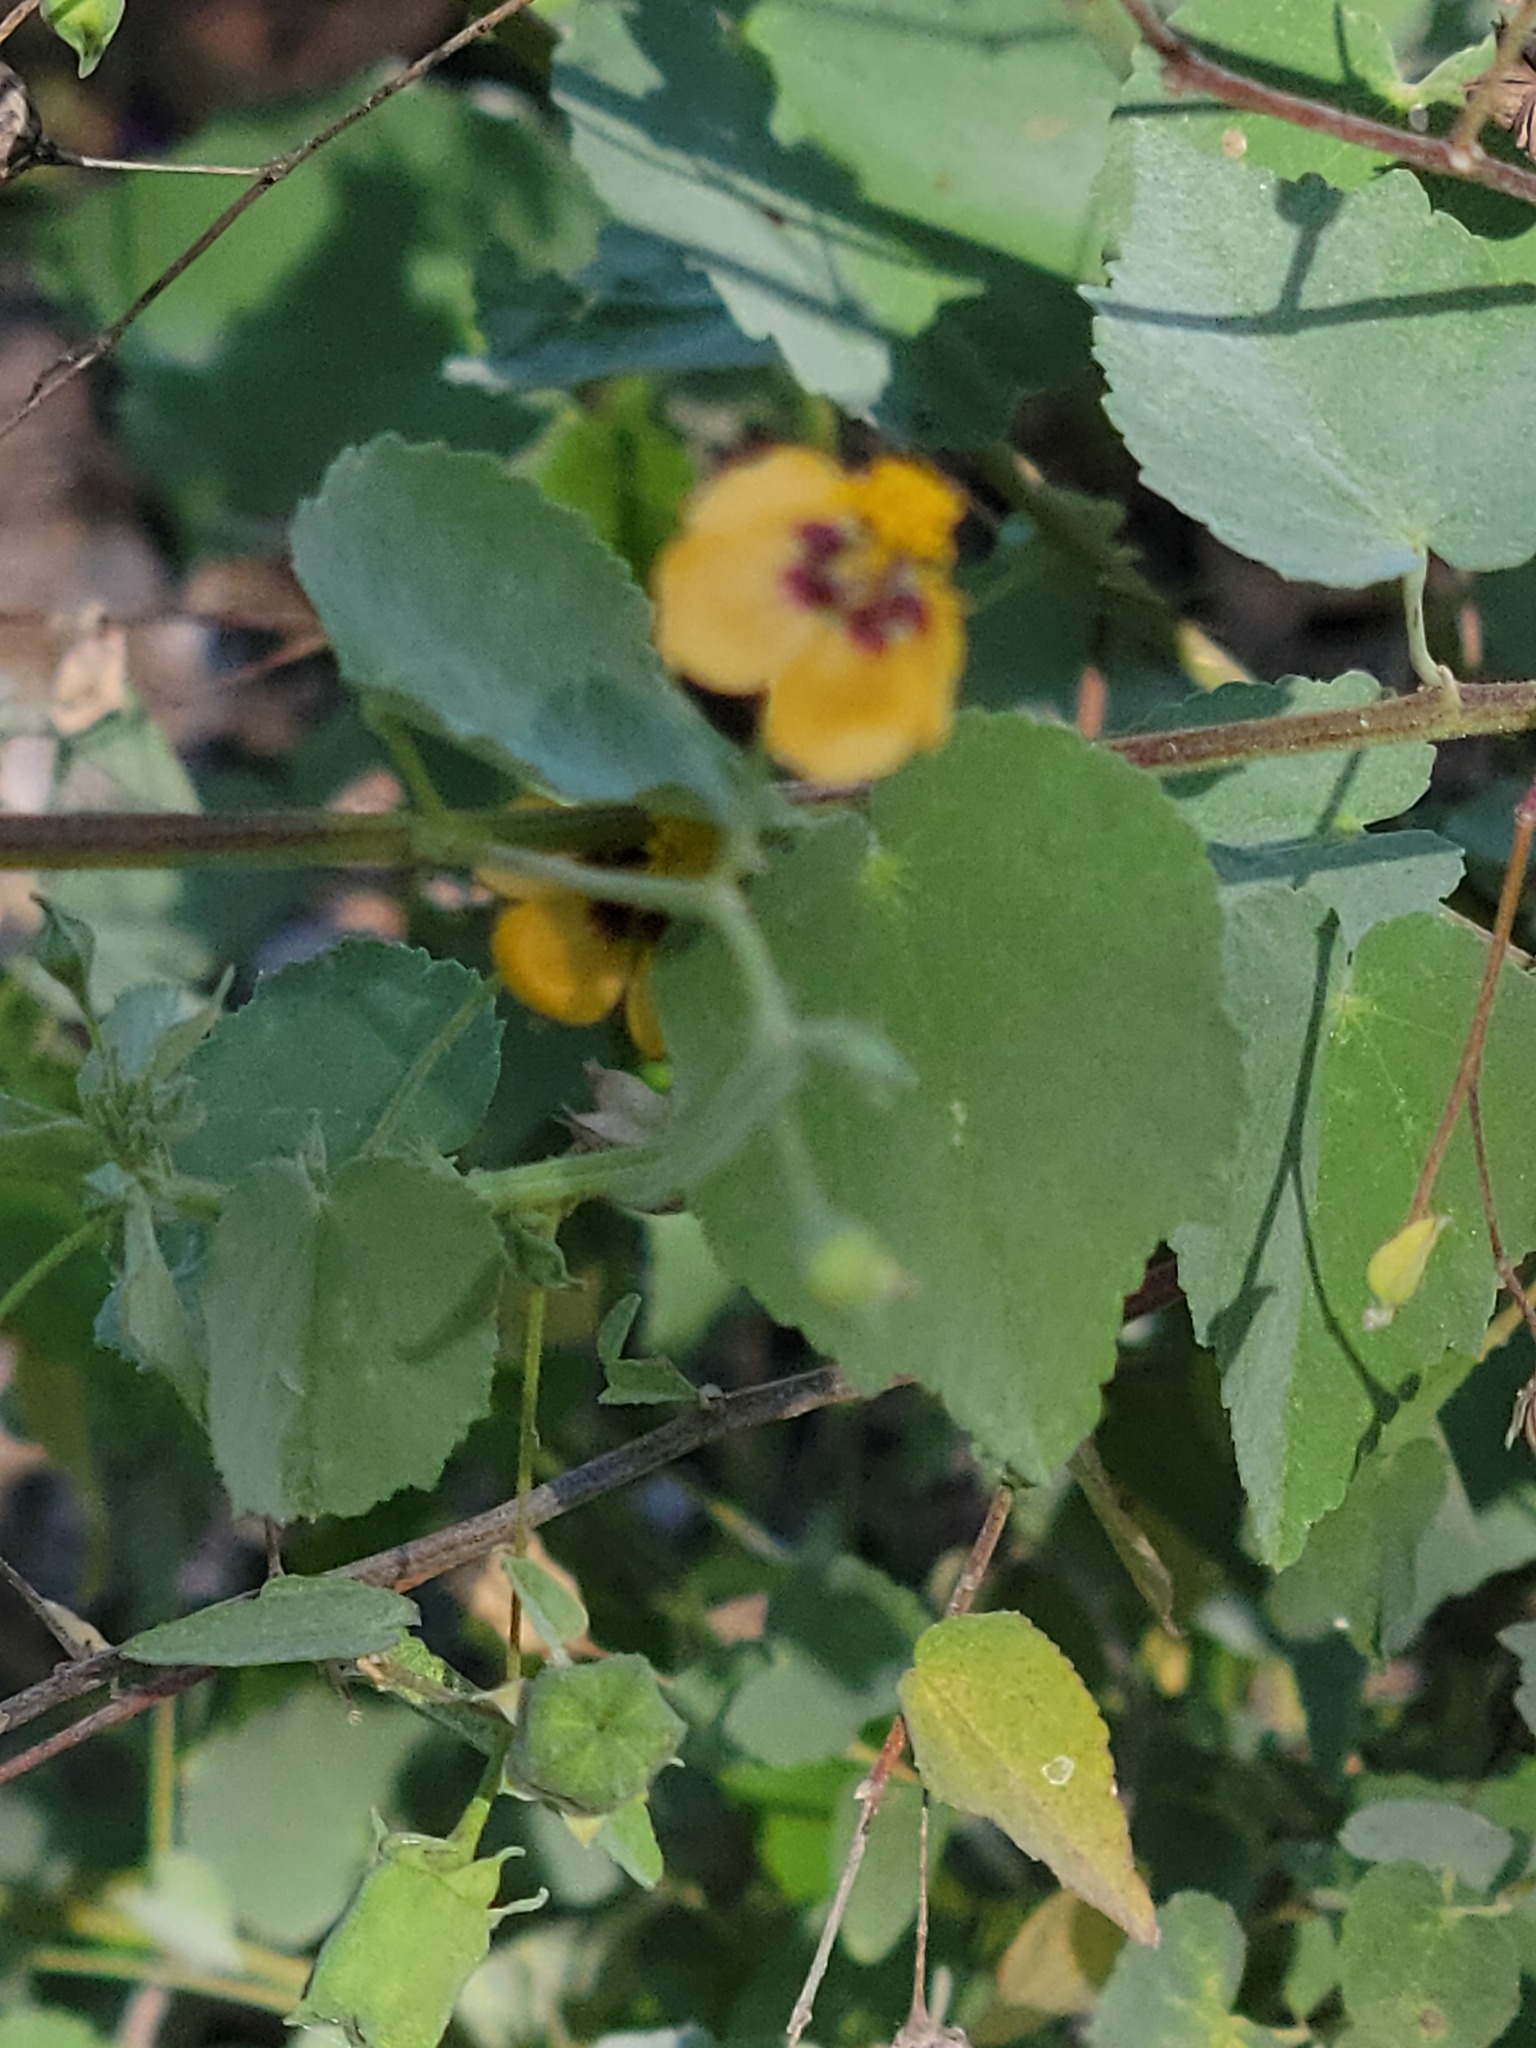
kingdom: Plantae
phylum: Tracheophyta
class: Magnoliopsida
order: Malvales
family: Malvaceae
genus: Abutilon
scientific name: Abutilon trisulcatum
